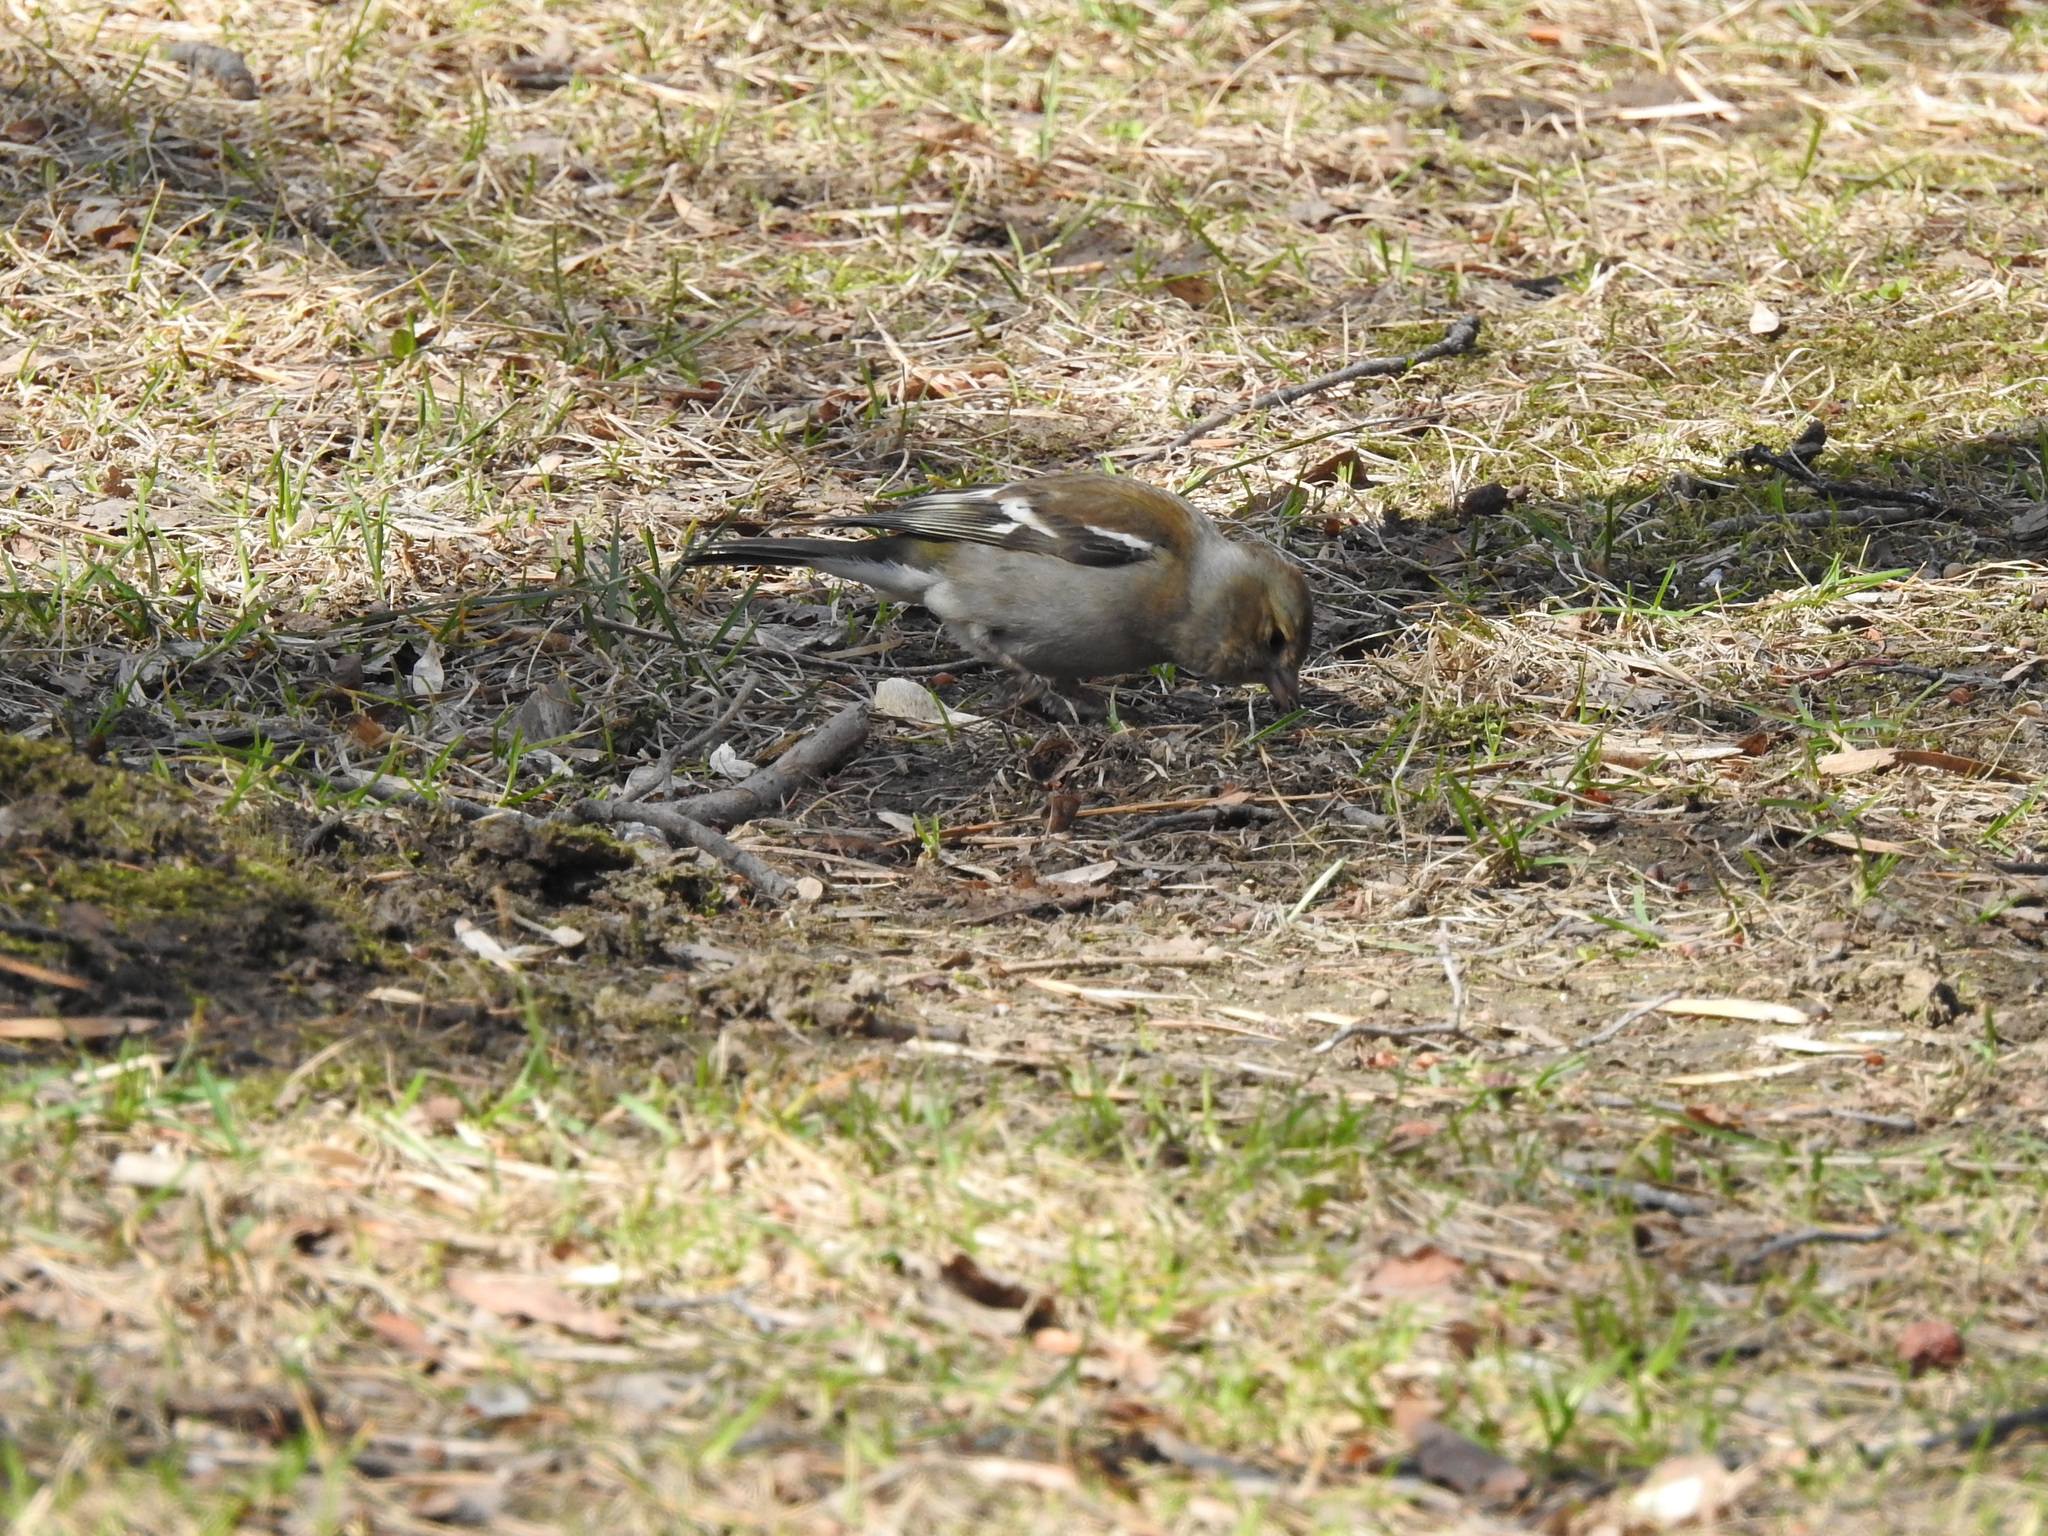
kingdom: Animalia
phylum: Chordata
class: Aves
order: Passeriformes
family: Fringillidae
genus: Fringilla
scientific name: Fringilla coelebs
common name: Common chaffinch
